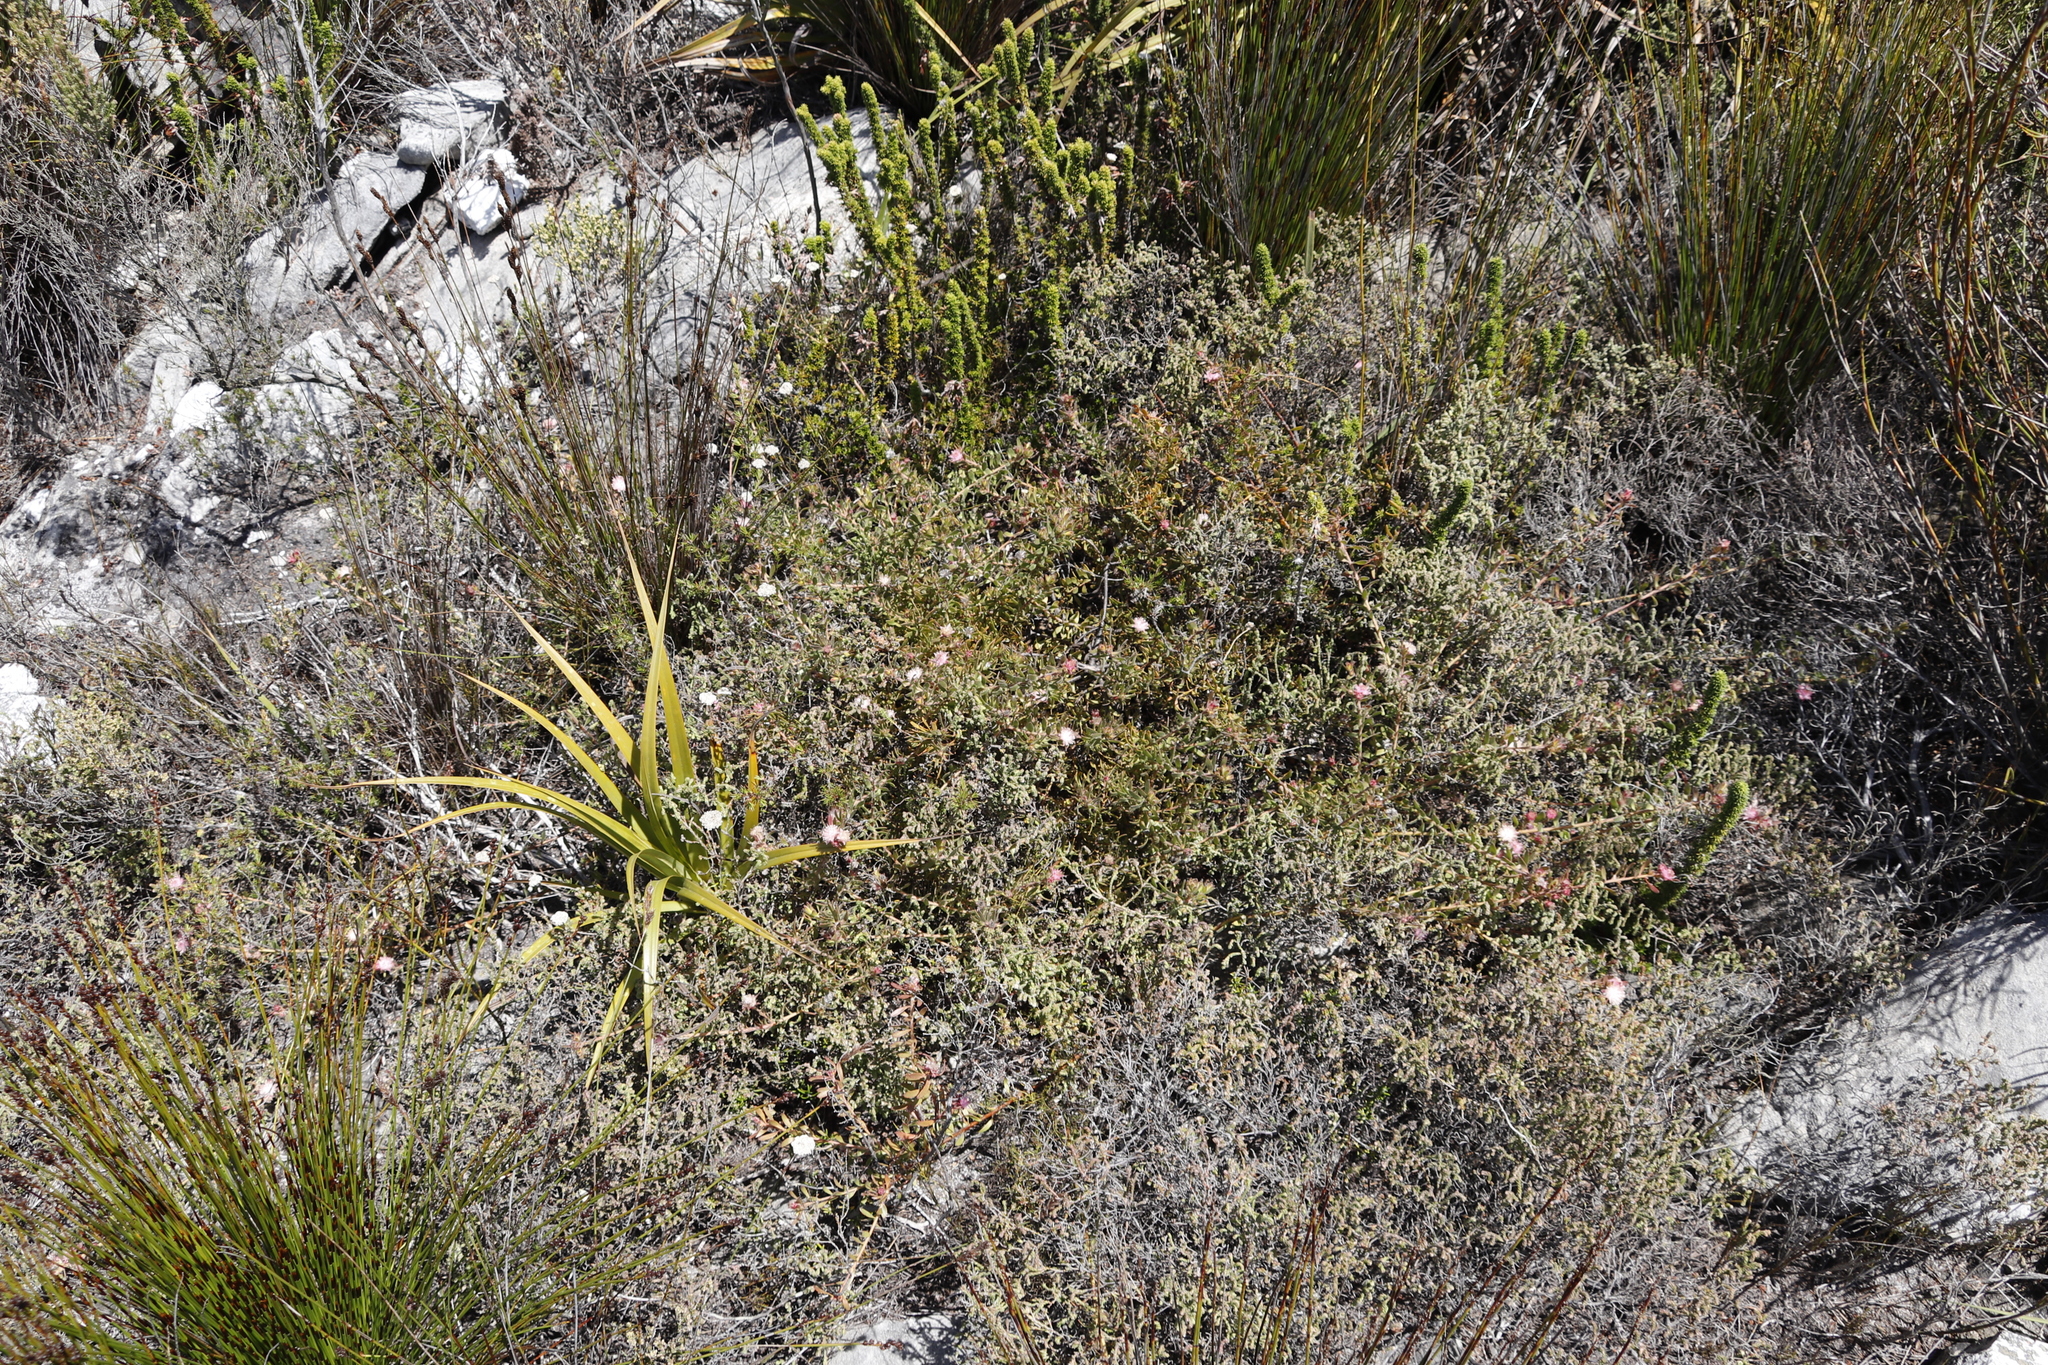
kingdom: Plantae
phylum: Tracheophyta
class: Magnoliopsida
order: Proteales
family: Proteaceae
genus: Diastella
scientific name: Diastella divaricata
